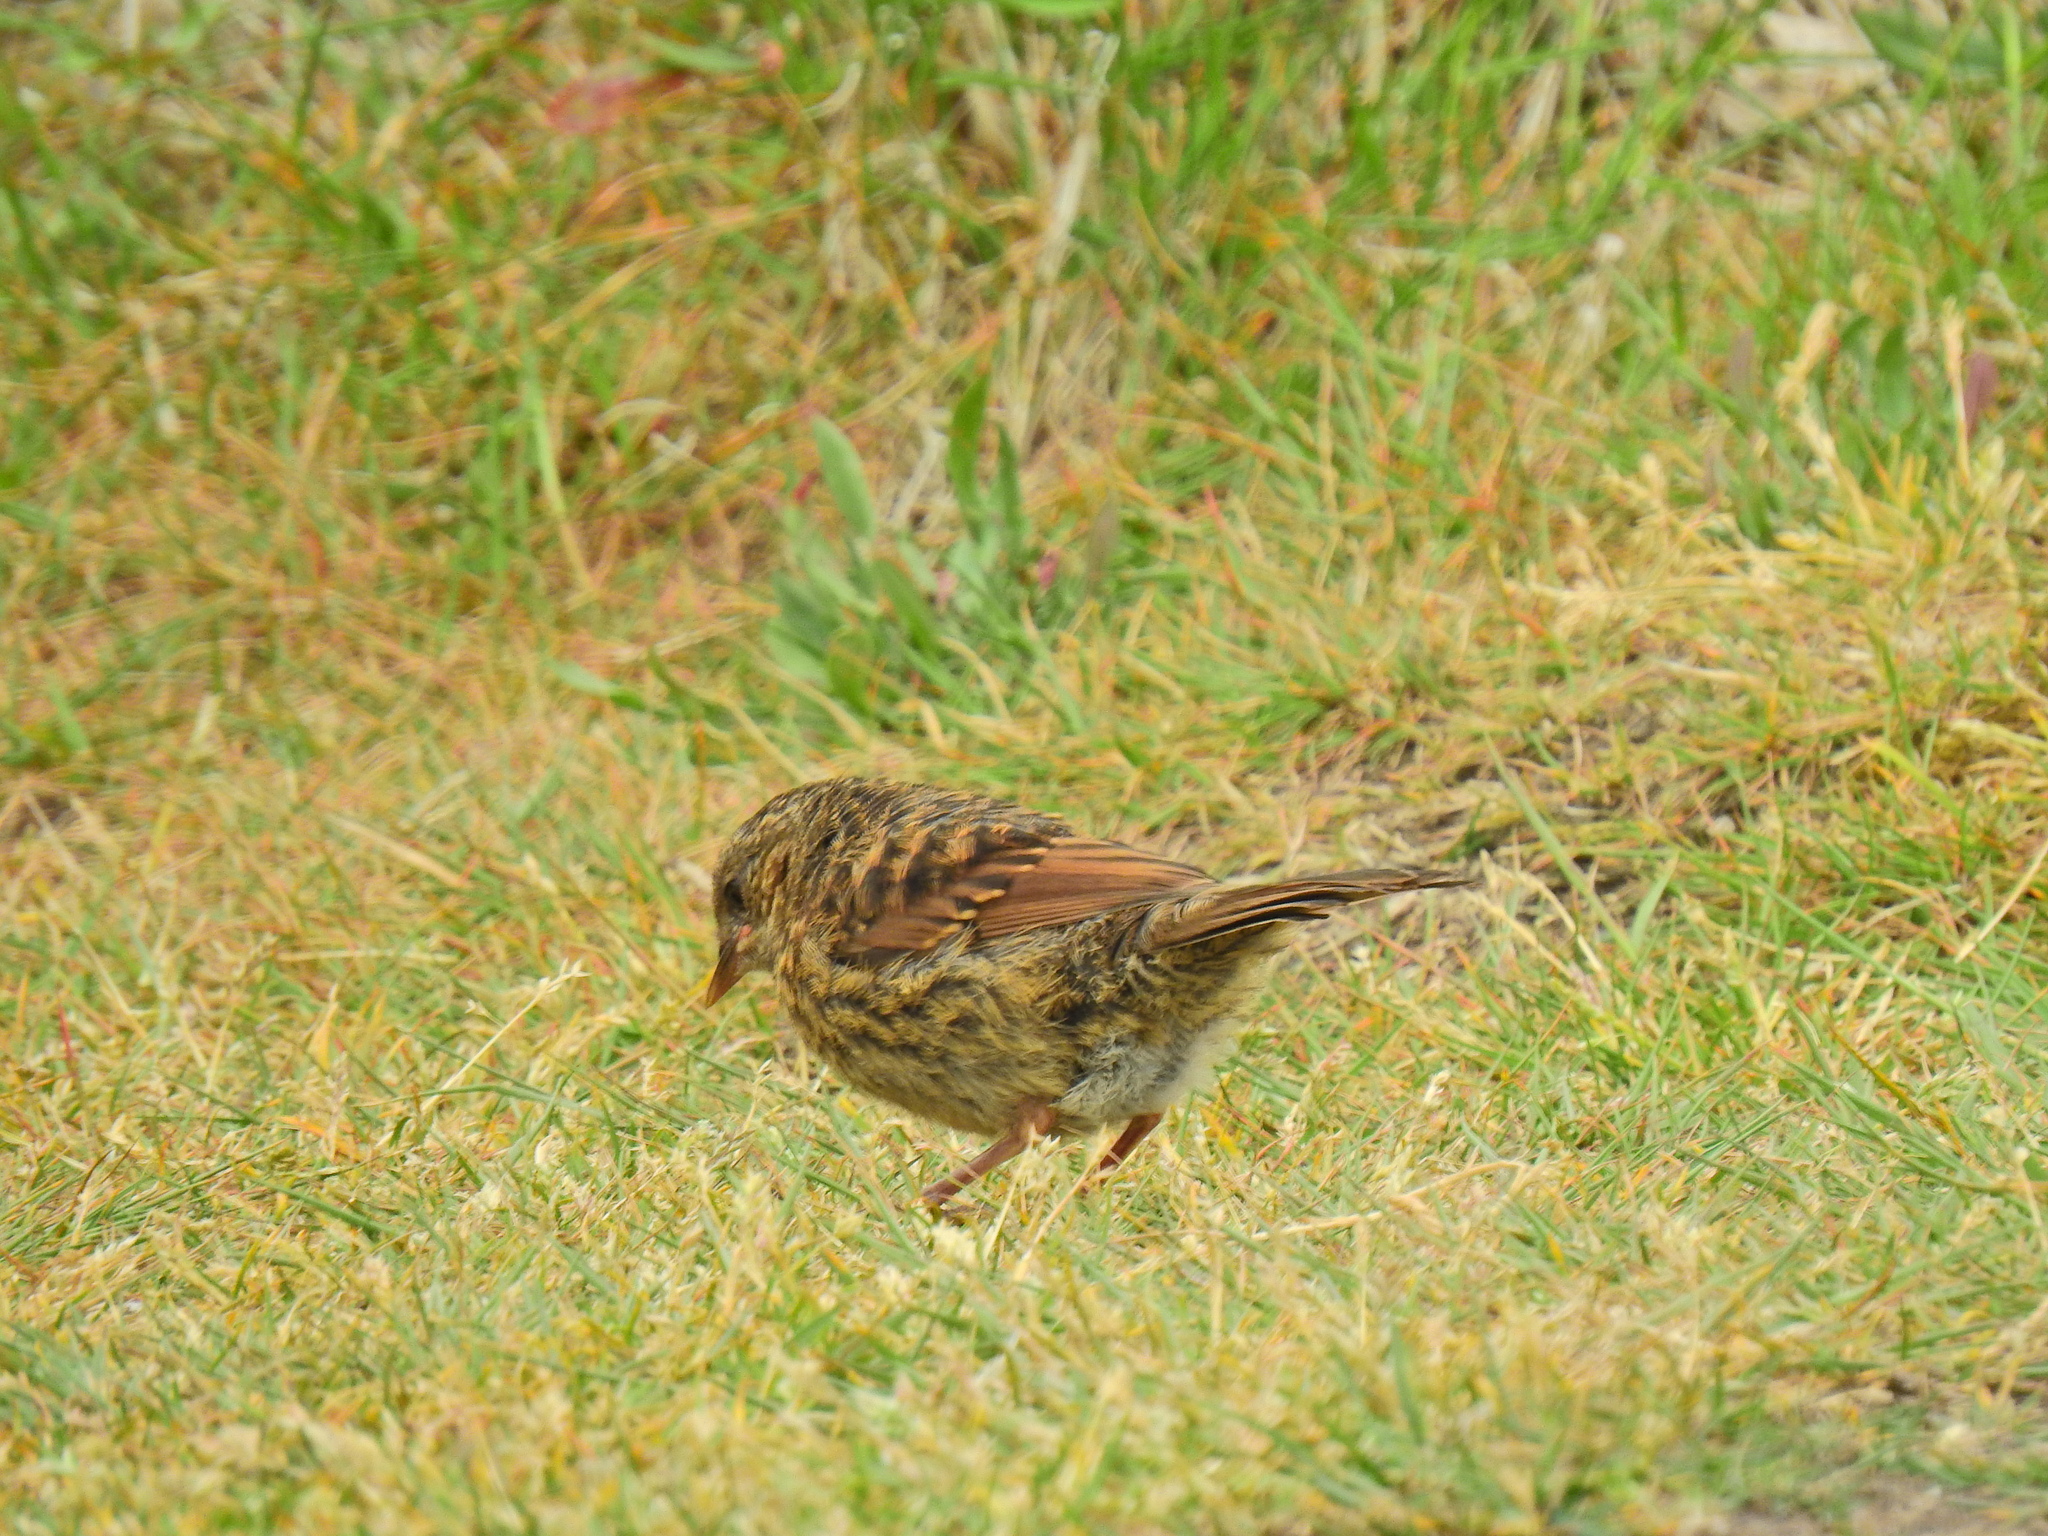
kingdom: Animalia
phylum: Chordata
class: Aves
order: Passeriformes
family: Prunellidae
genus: Prunella
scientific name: Prunella modularis
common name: Dunnock
